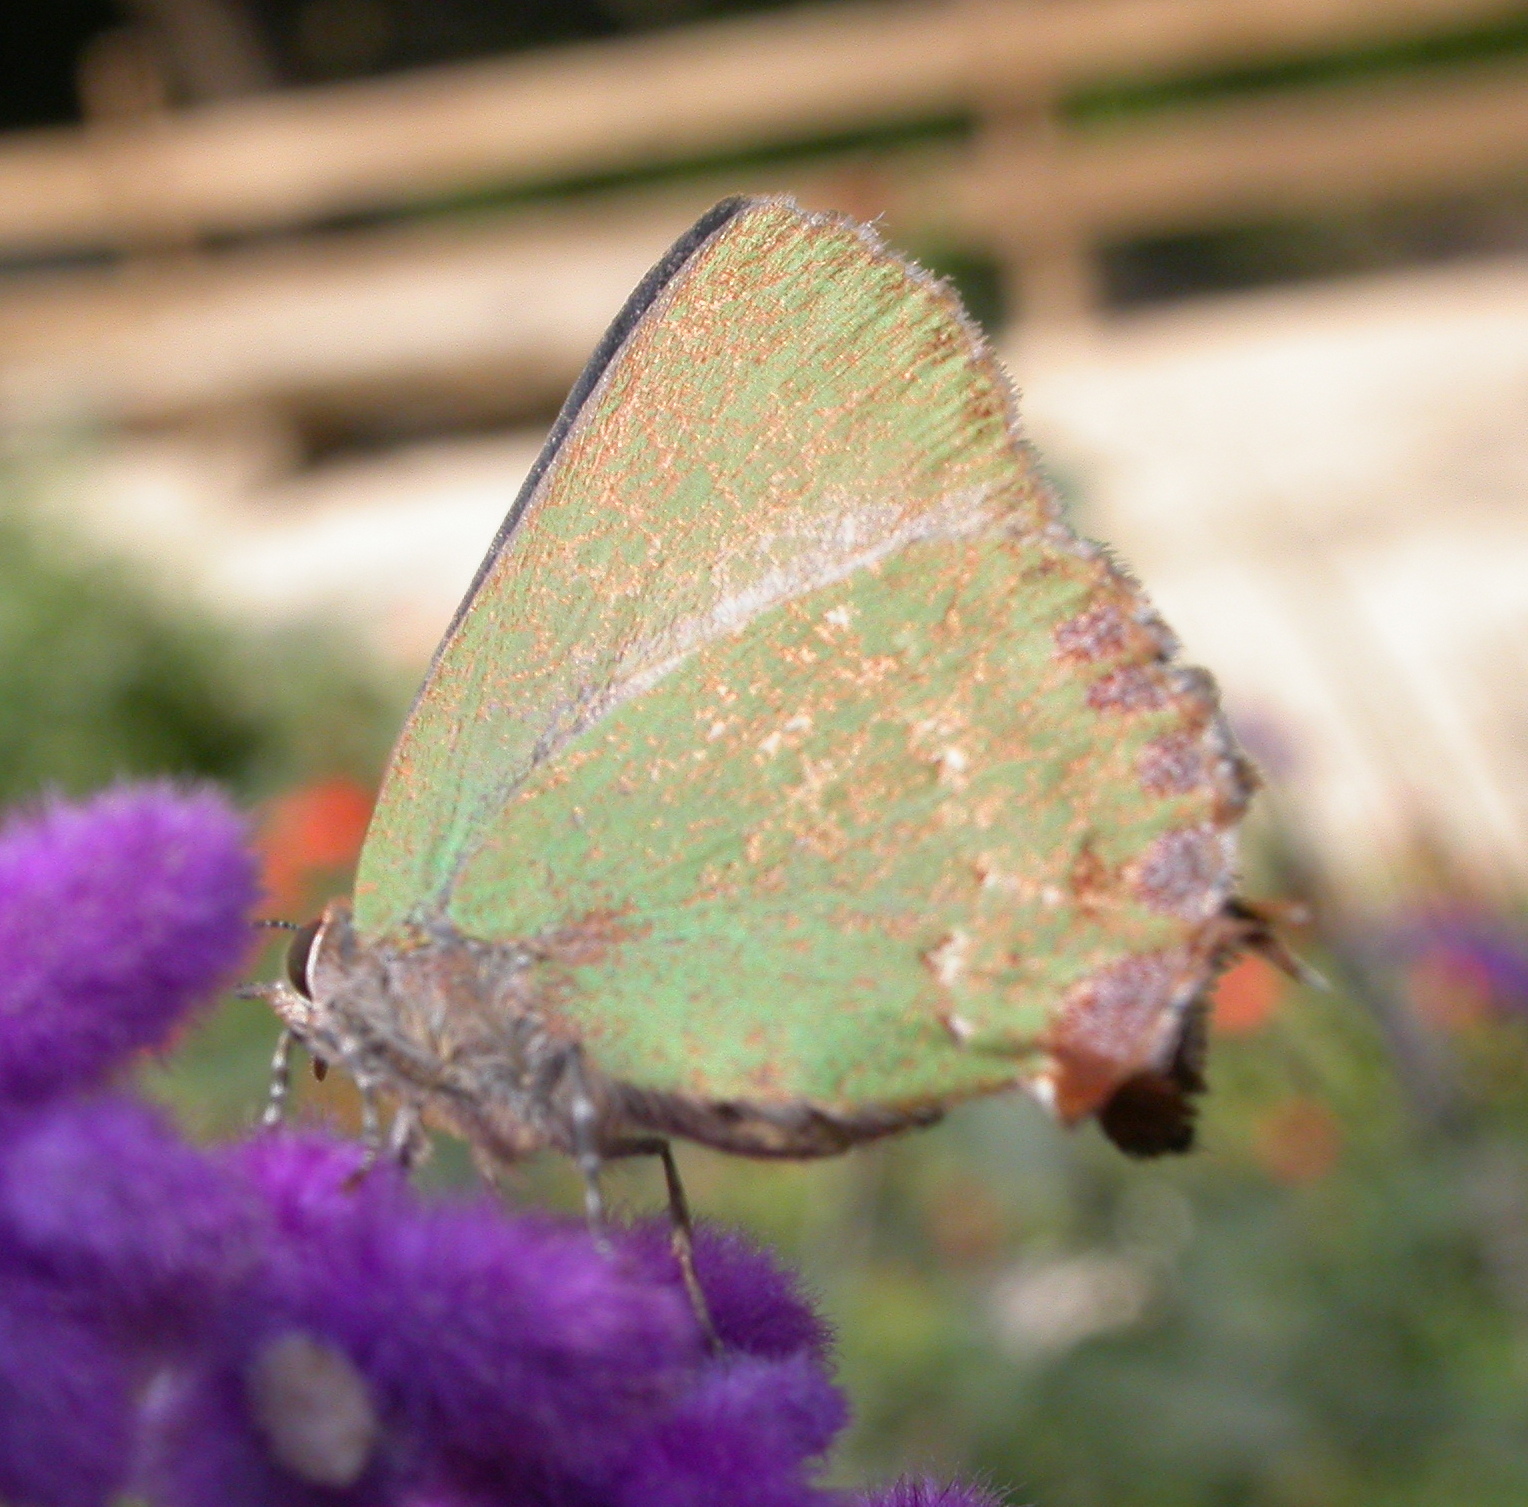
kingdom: Animalia
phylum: Arthropoda
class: Insecta
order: Lepidoptera
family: Lycaenidae
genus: Cyanophrys
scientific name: Cyanophrys longula
